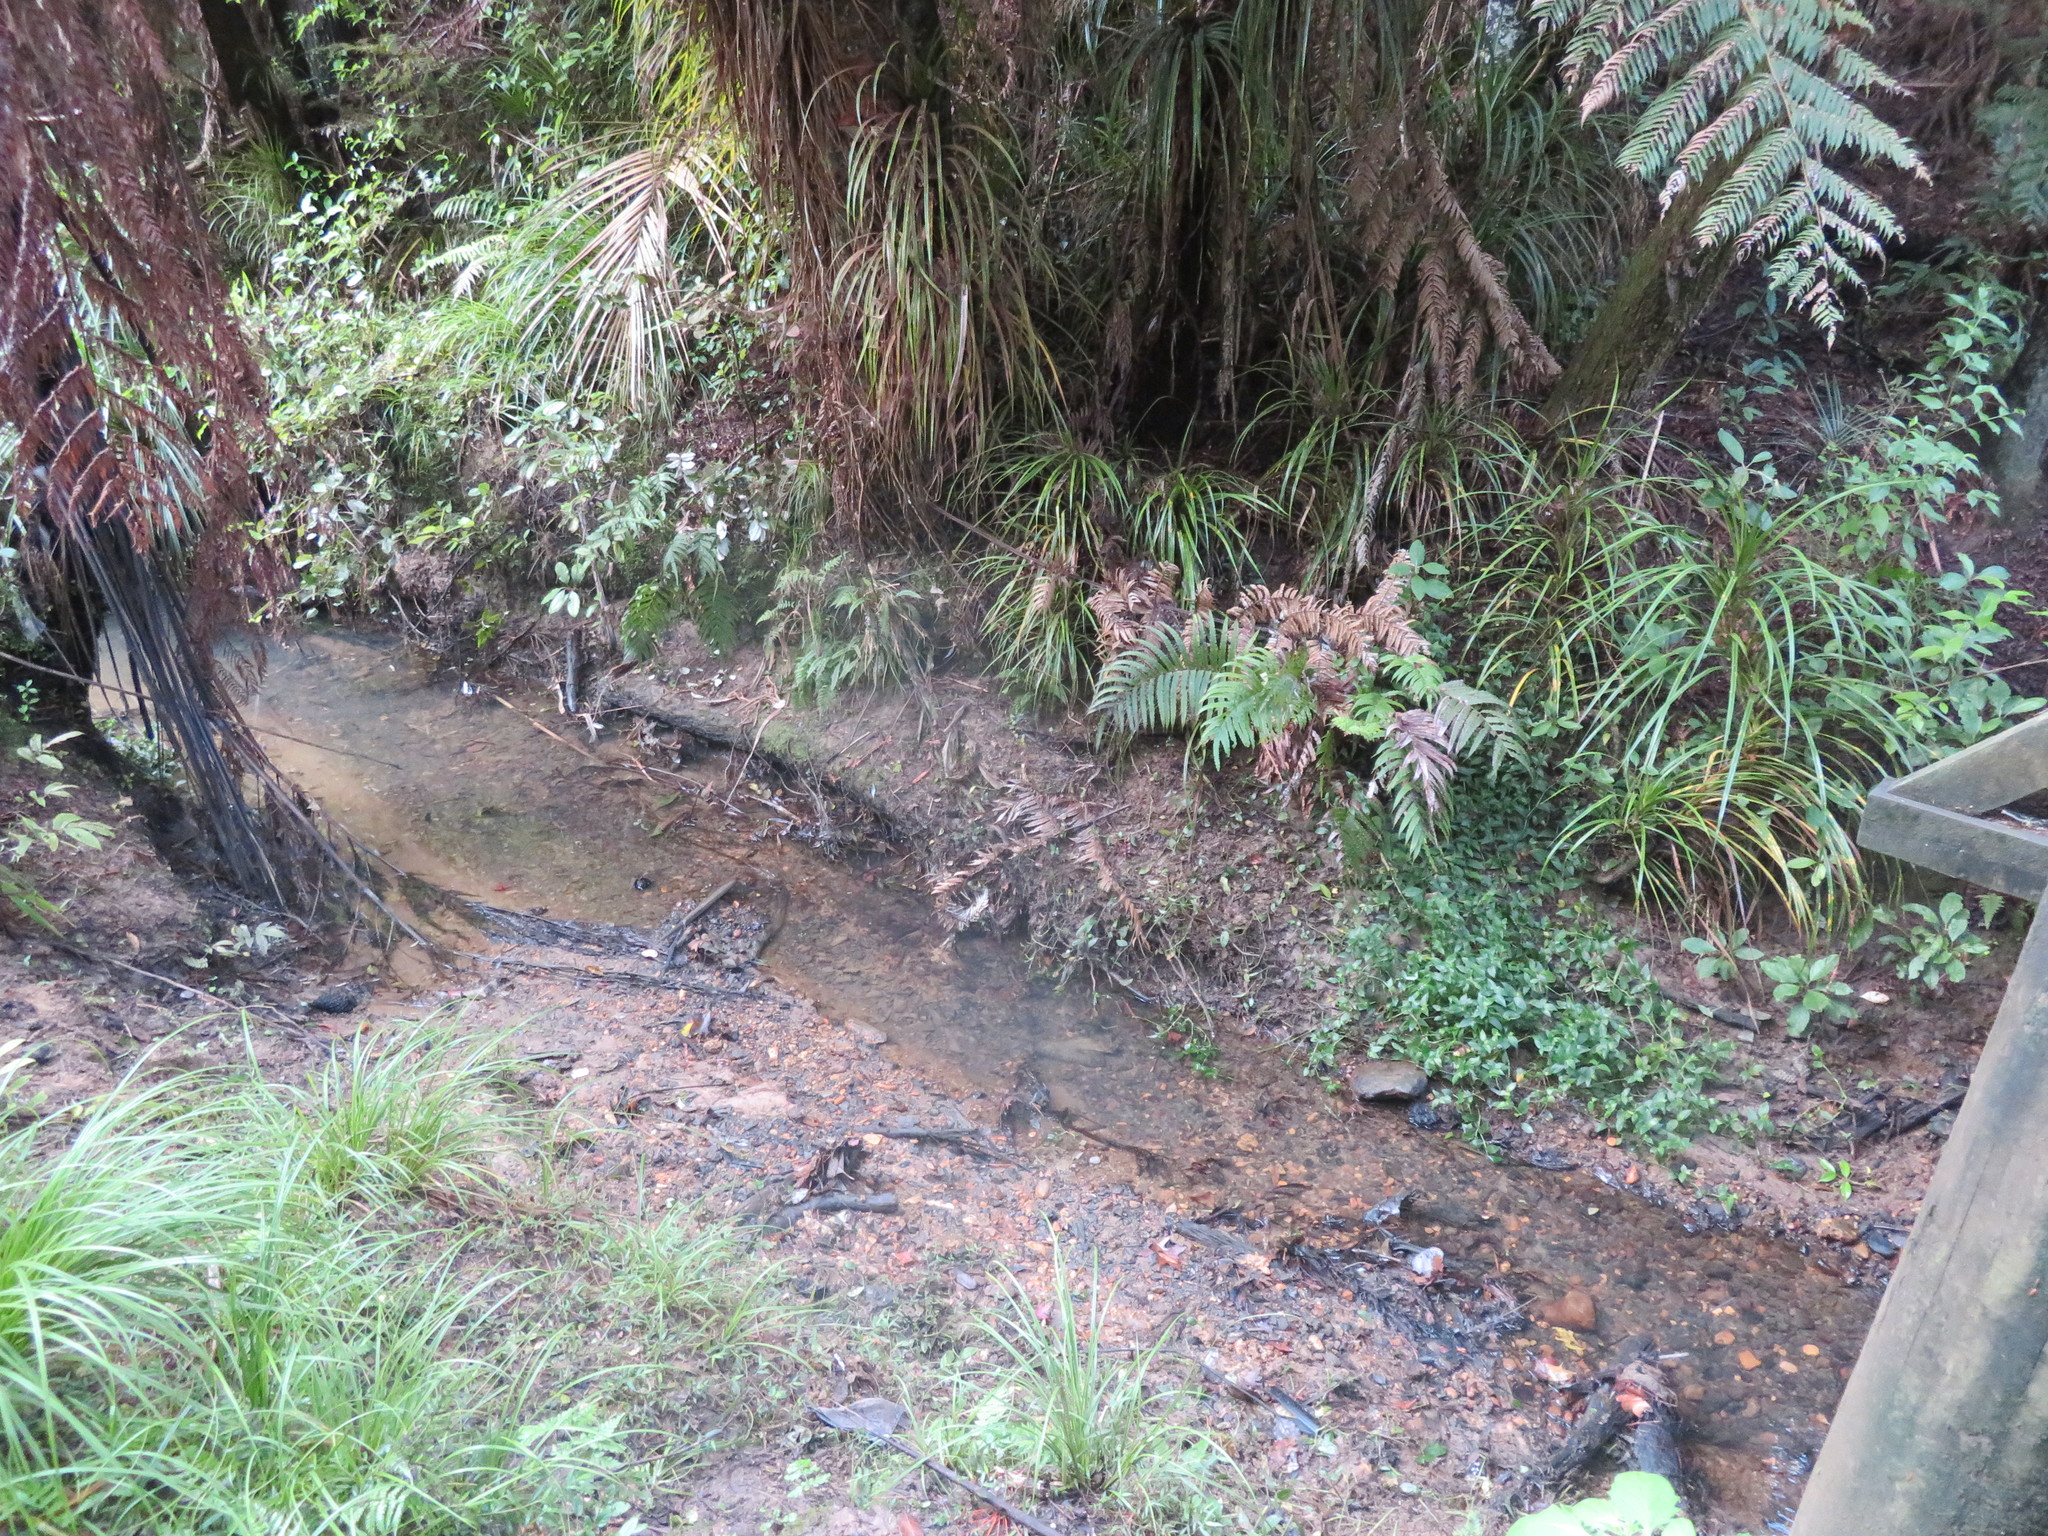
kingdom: Plantae
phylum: Tracheophyta
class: Liliopsida
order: Commelinales
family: Commelinaceae
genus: Tradescantia
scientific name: Tradescantia fluminensis
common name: Wandering-jew
